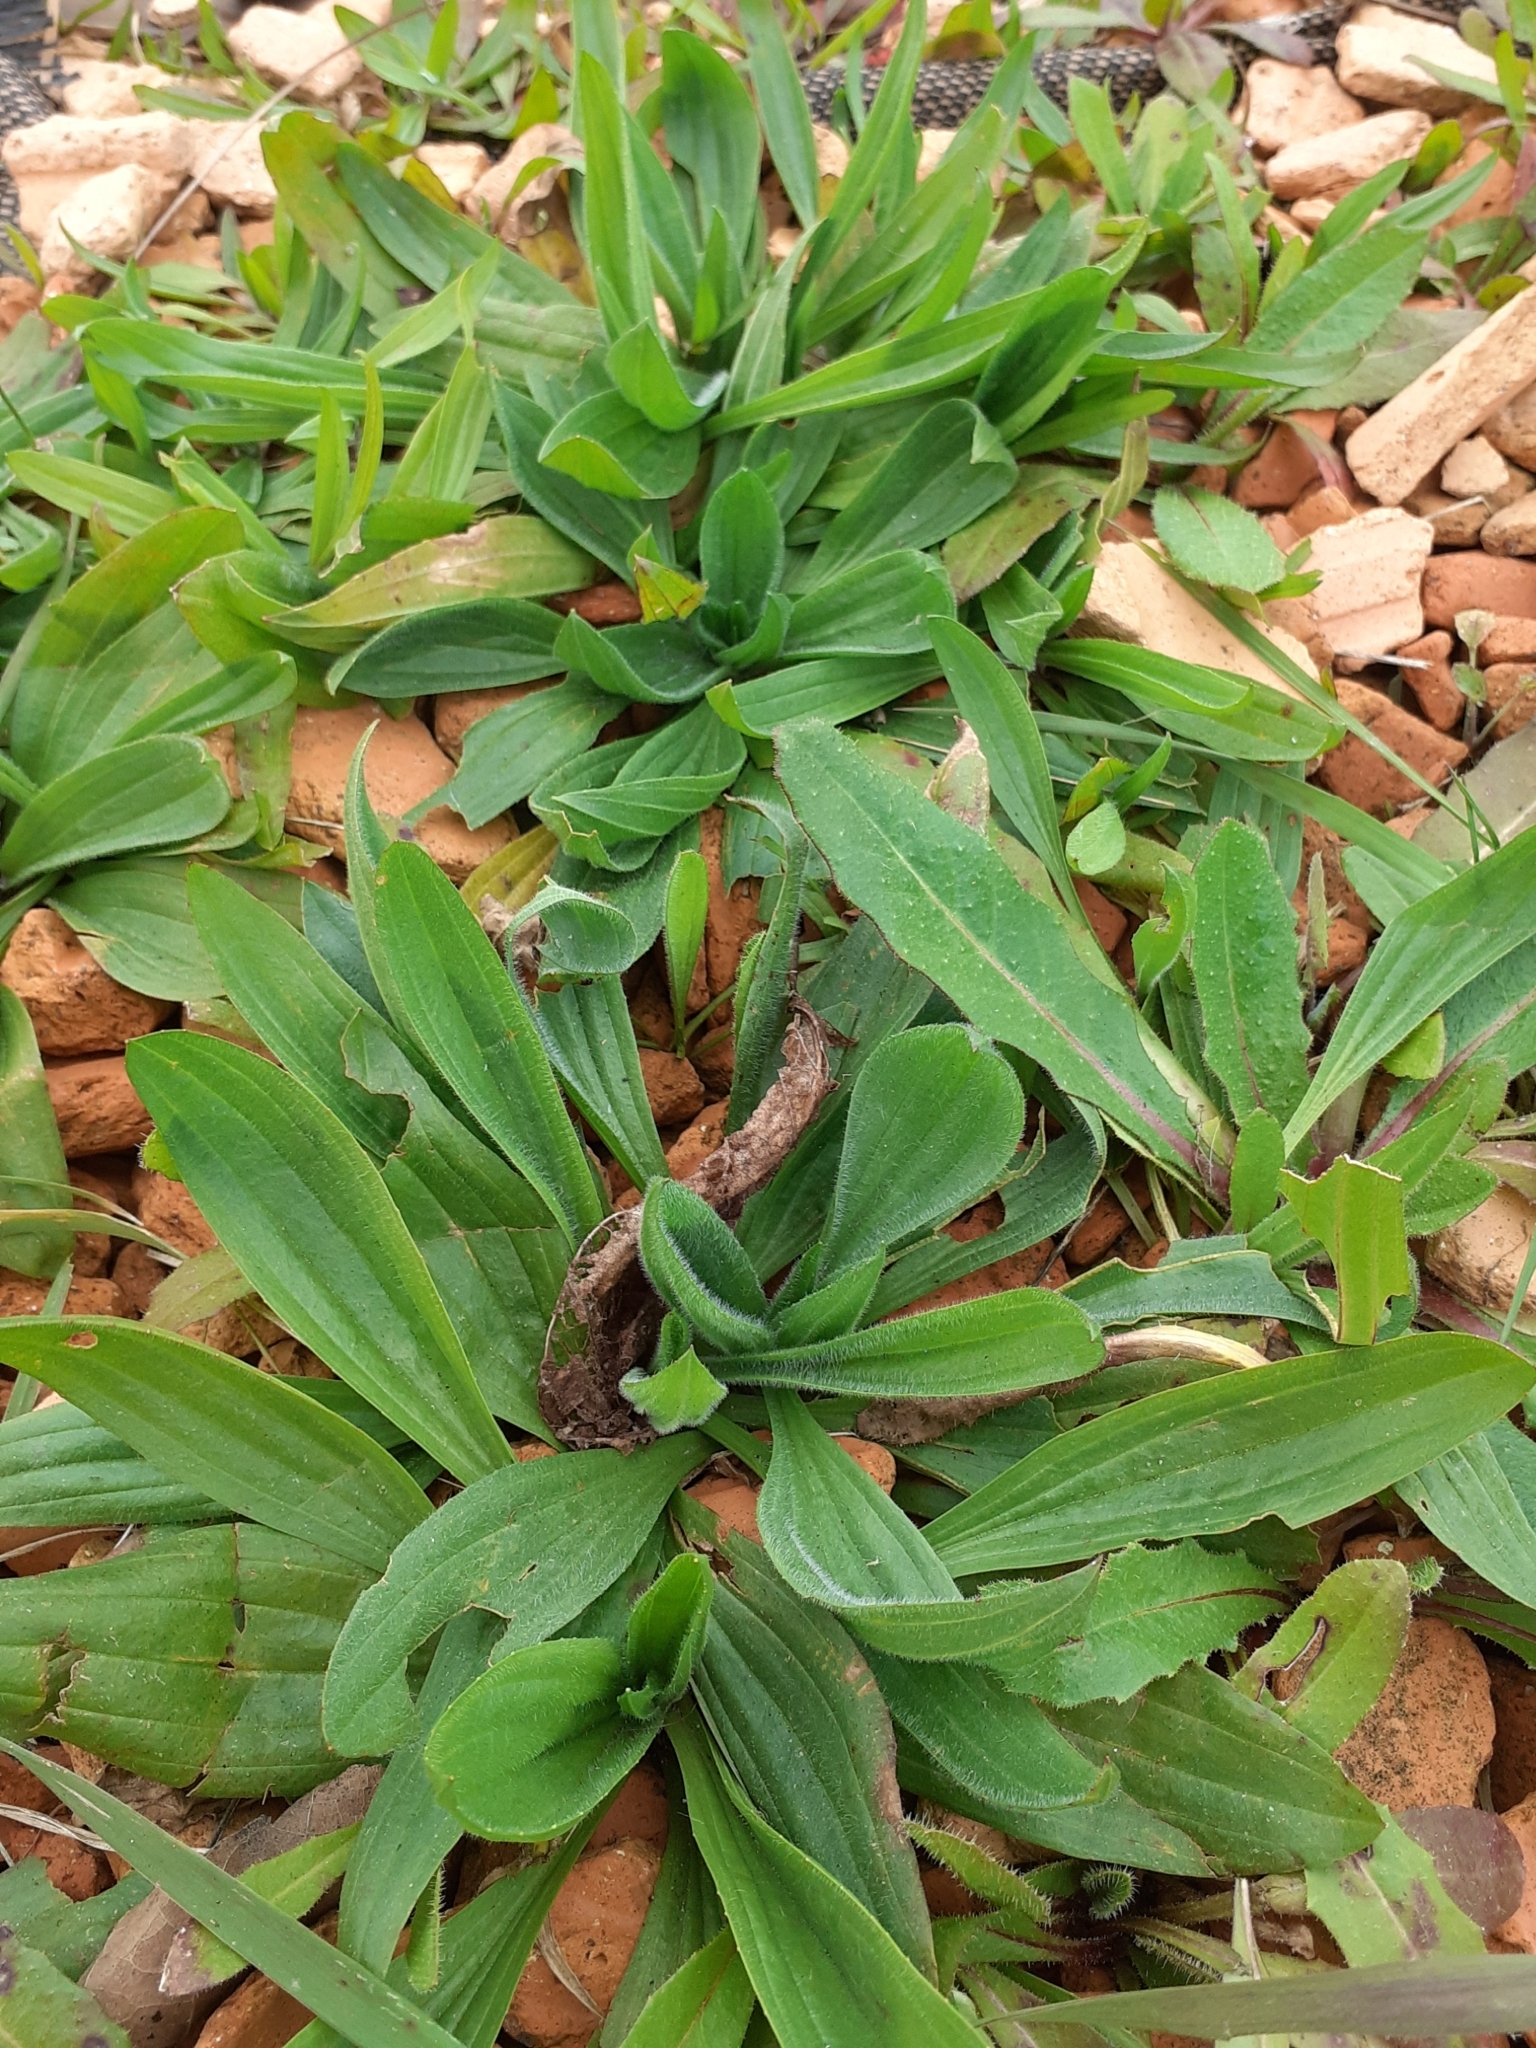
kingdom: Plantae
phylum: Tracheophyta
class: Magnoliopsida
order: Lamiales
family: Plantaginaceae
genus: Plantago
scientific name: Plantago lanceolata
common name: Ribwort plantain
